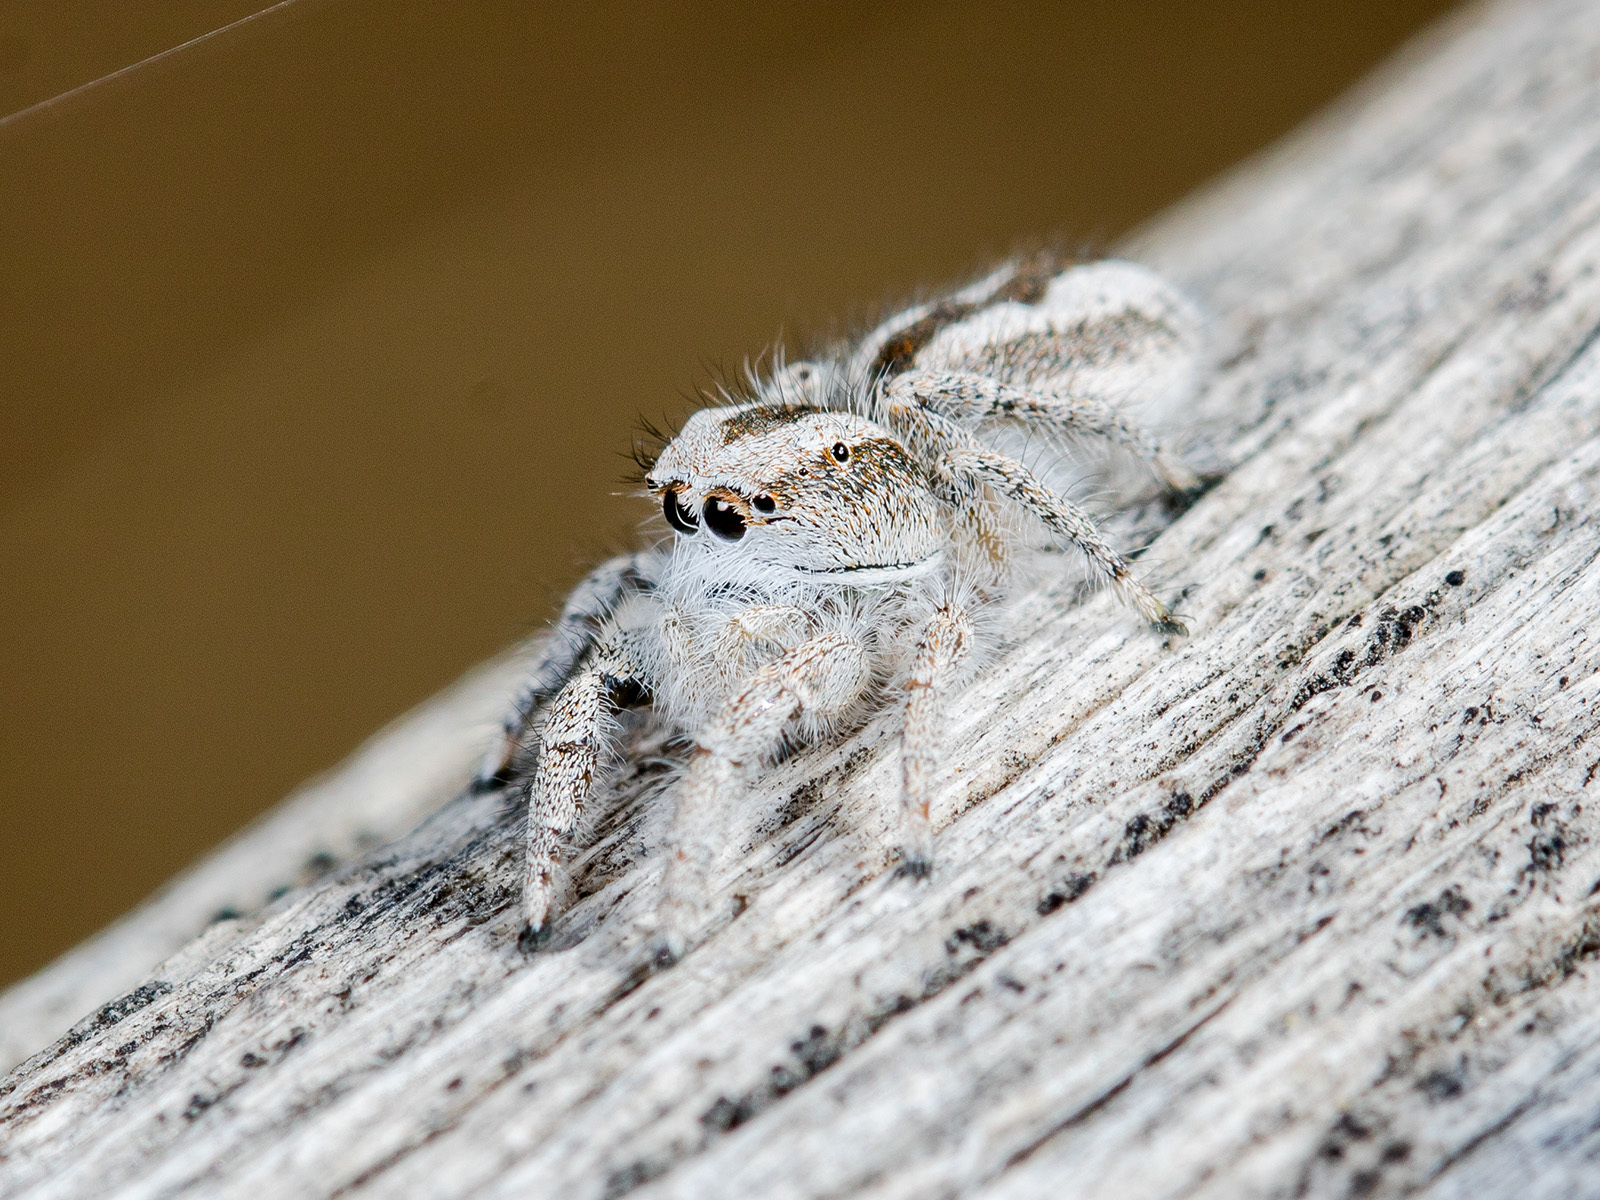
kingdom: Animalia
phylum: Arthropoda
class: Arachnida
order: Araneae
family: Salticidae
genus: Pseudomogrus
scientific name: Pseudomogrus validus
